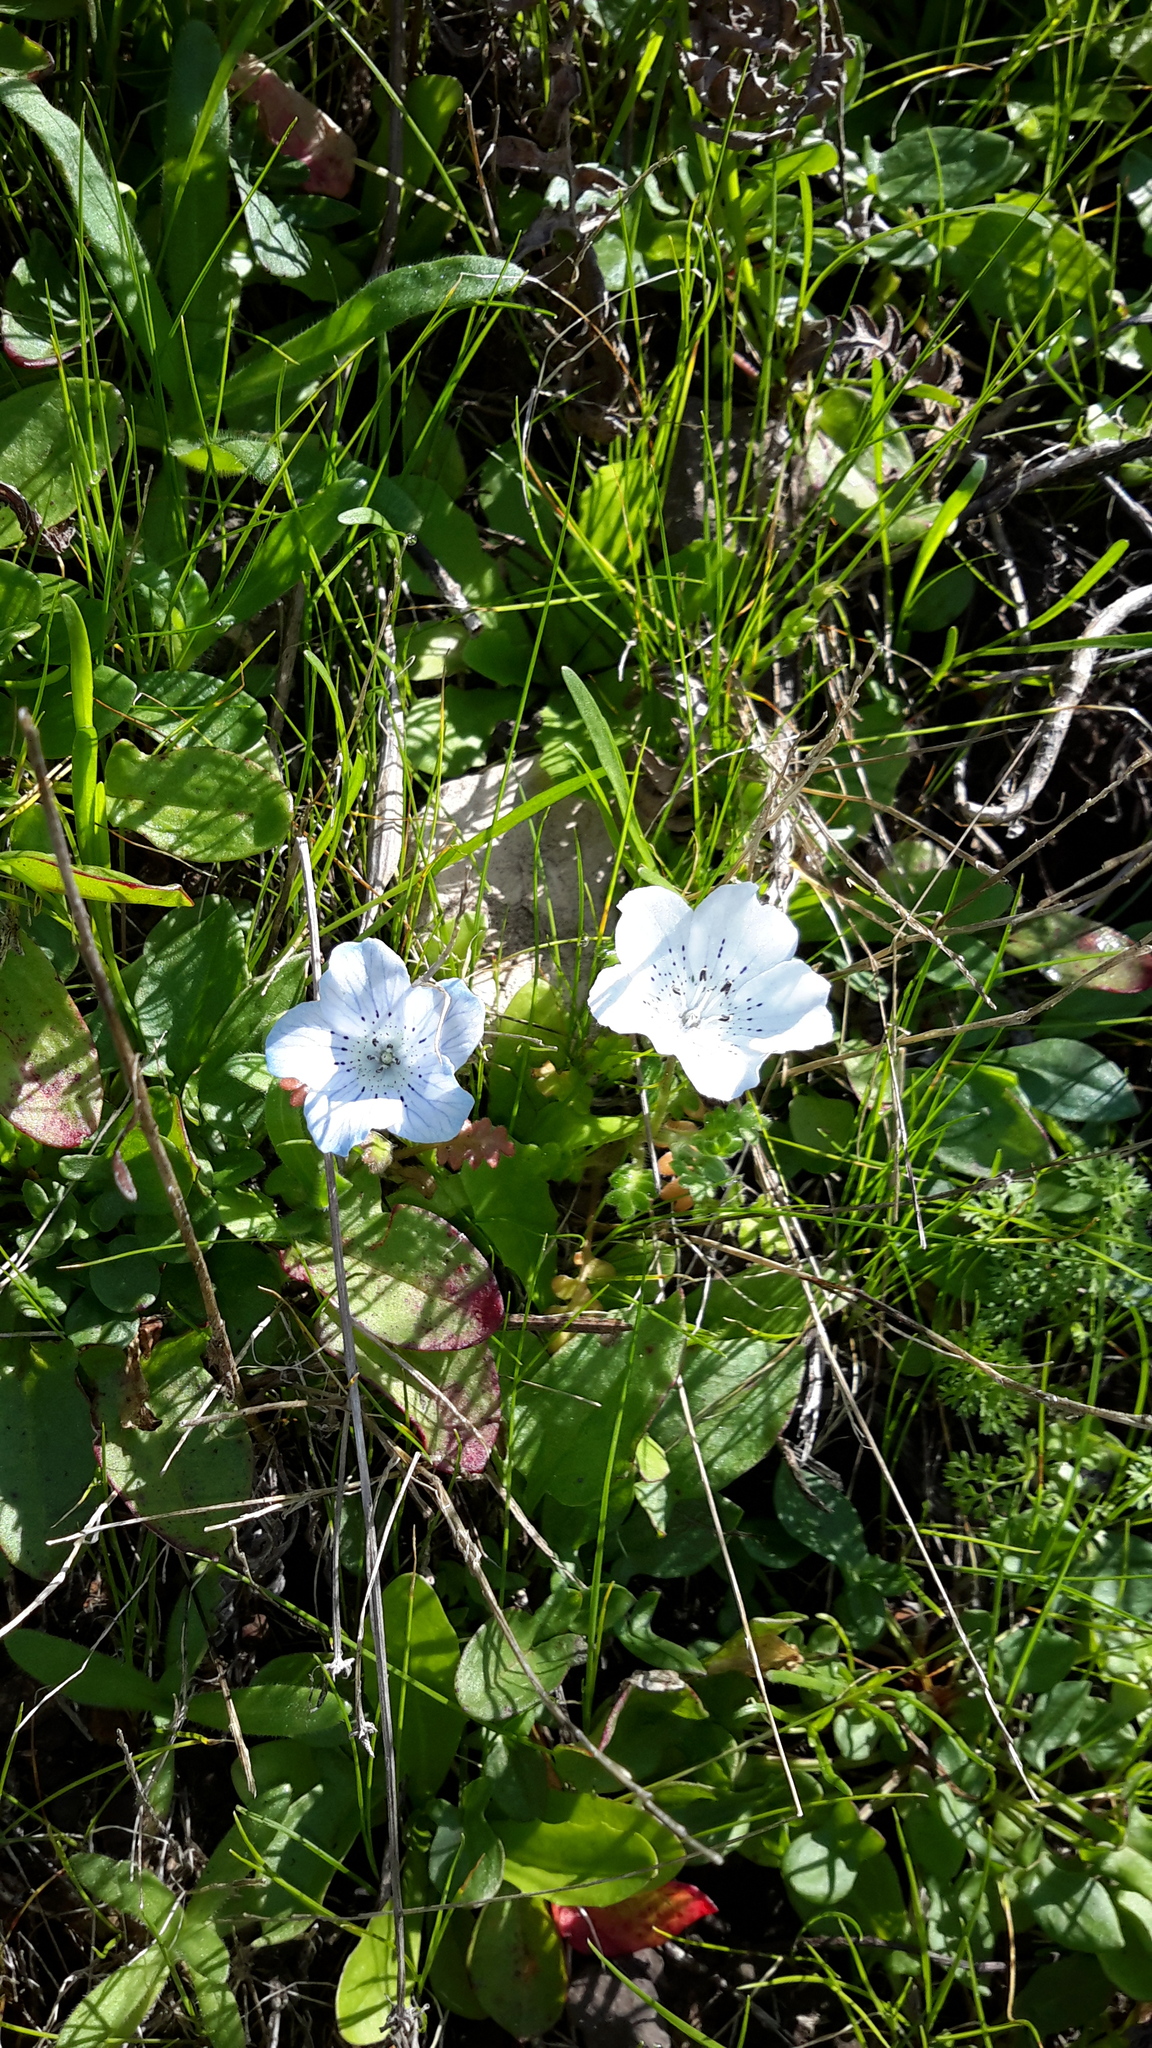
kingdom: Plantae
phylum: Tracheophyta
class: Magnoliopsida
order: Boraginales
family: Hydrophyllaceae
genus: Nemophila
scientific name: Nemophila menziesii
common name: Baby's-blue-eyes
